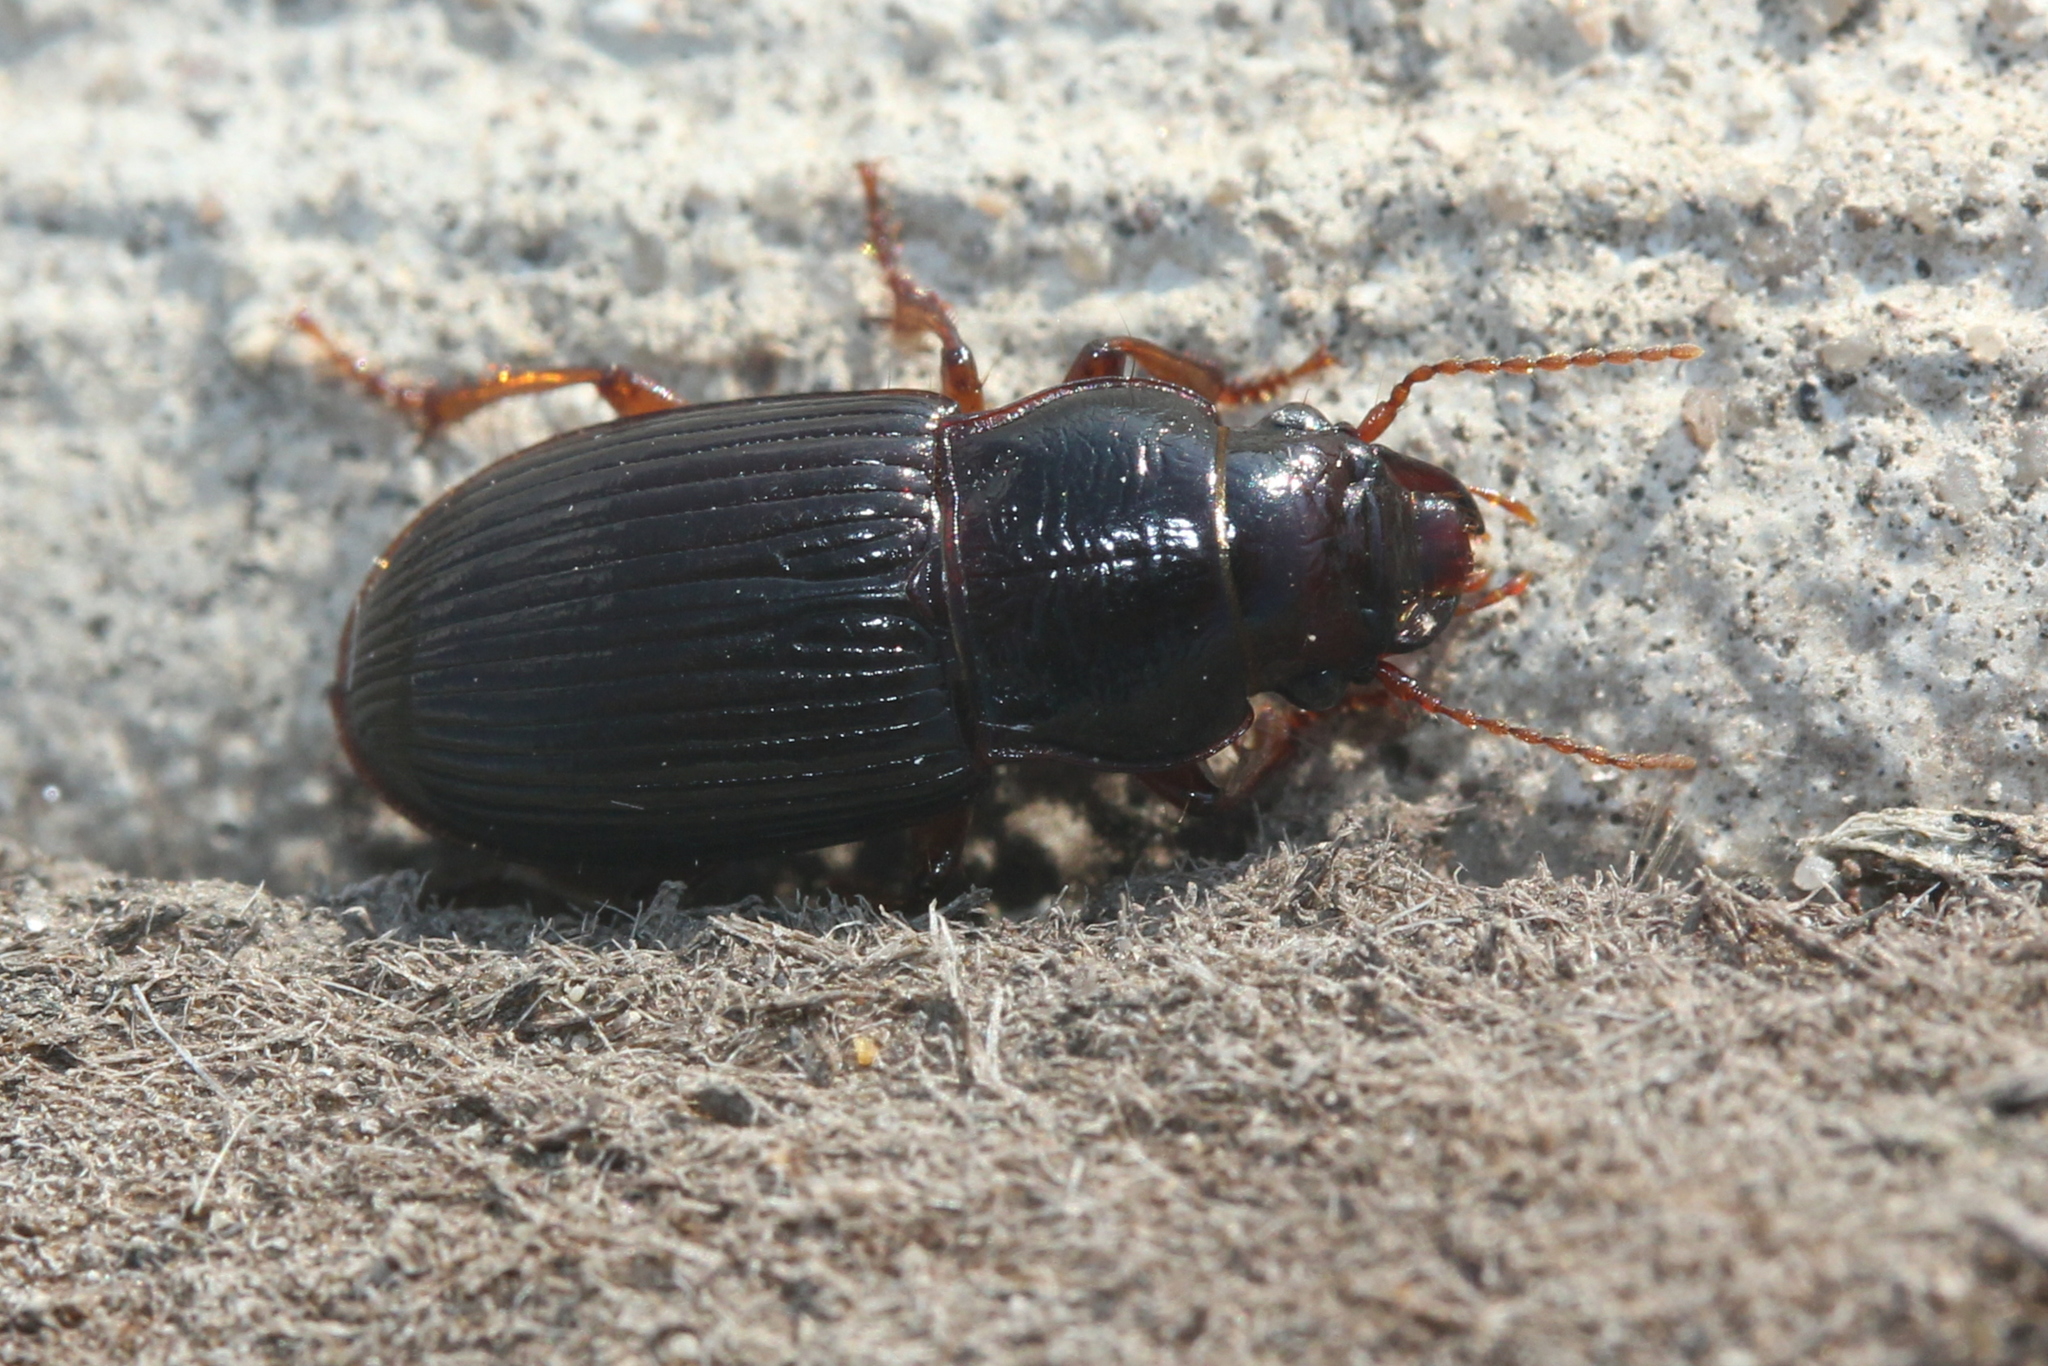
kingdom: Animalia
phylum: Arthropoda
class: Insecta
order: Coleoptera
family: Carabidae
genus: Cratacanthus
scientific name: Cratacanthus dubius
